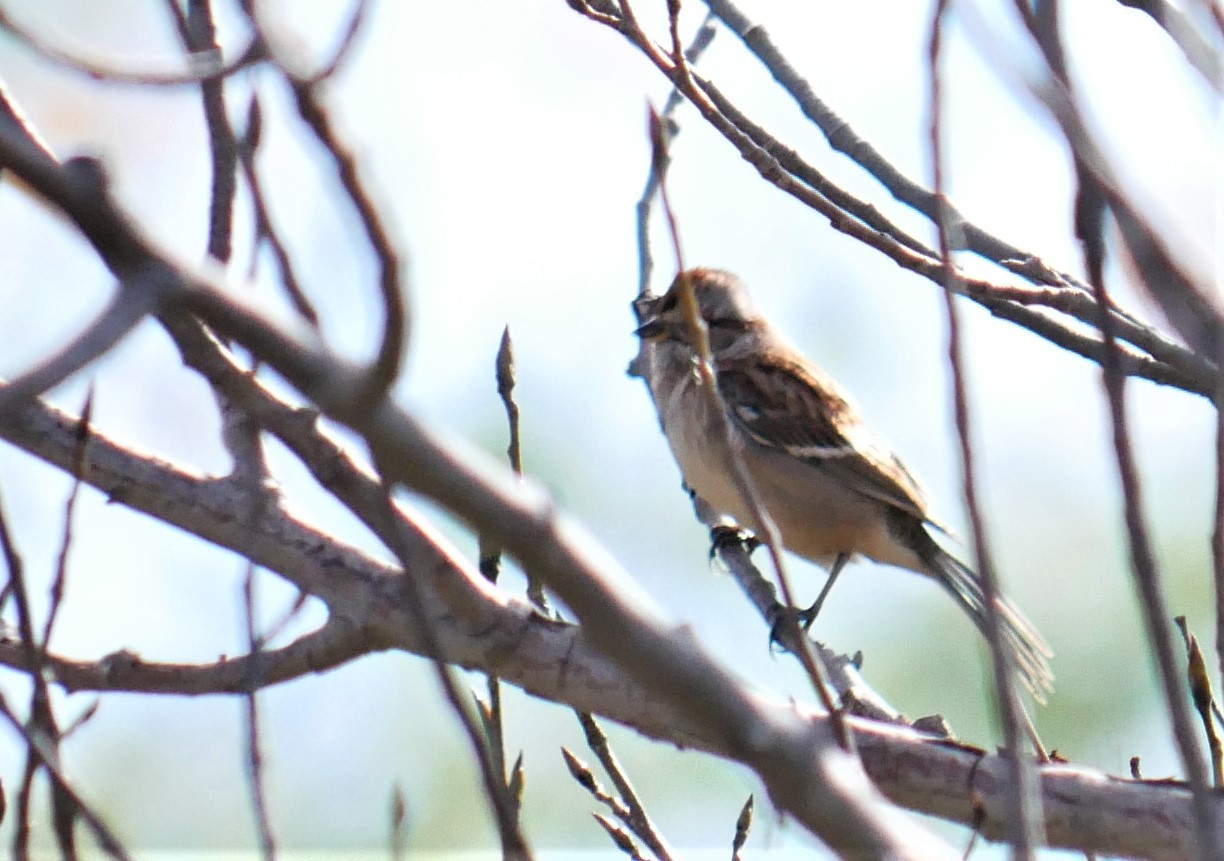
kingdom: Animalia
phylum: Chordata
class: Aves
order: Passeriformes
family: Passerellidae
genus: Spizelloides
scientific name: Spizelloides arborea
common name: American tree sparrow
